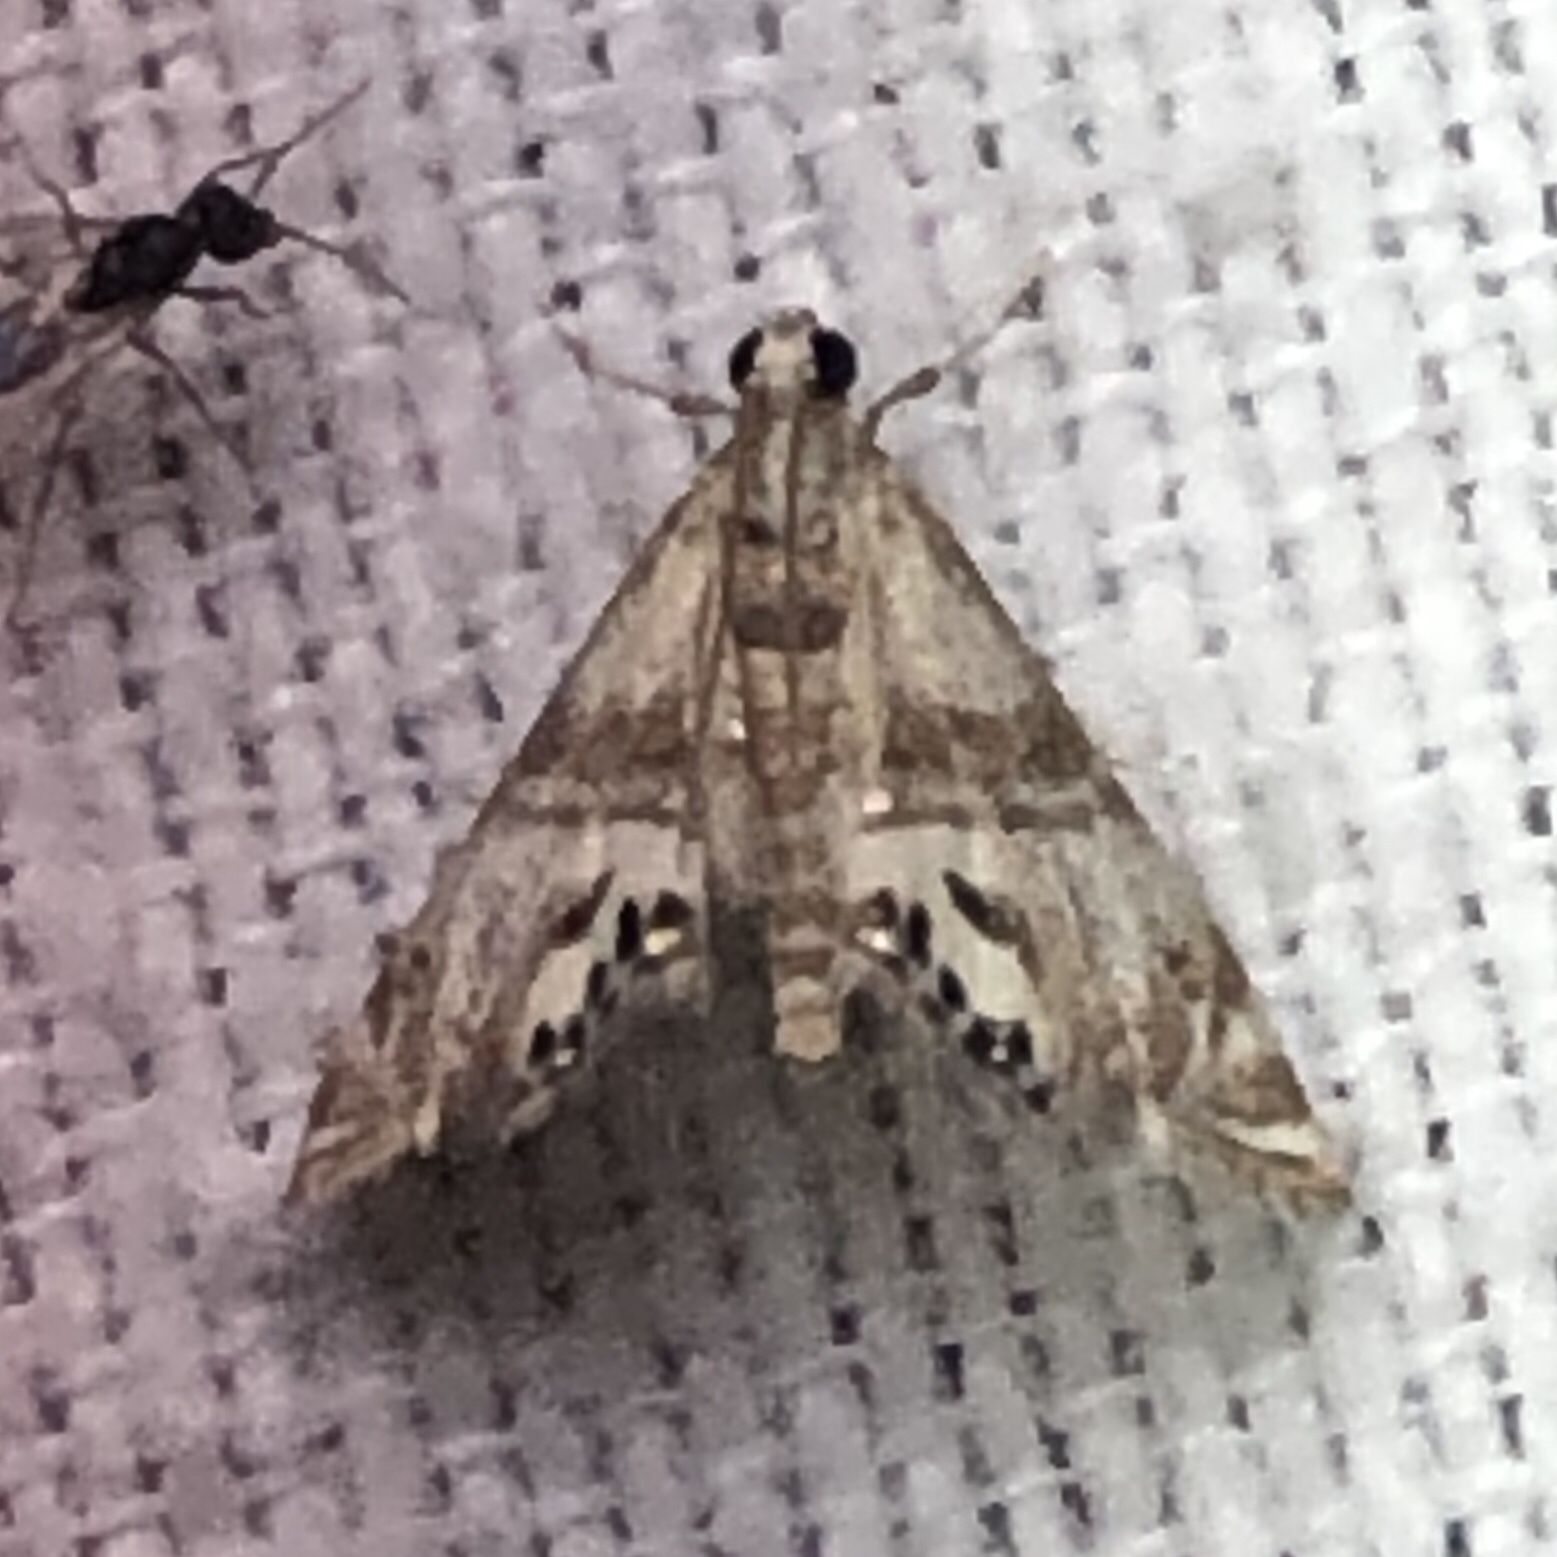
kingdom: Animalia
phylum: Arthropoda
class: Insecta
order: Lepidoptera
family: Crambidae
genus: Petrophila
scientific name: Petrophila bifascialis
